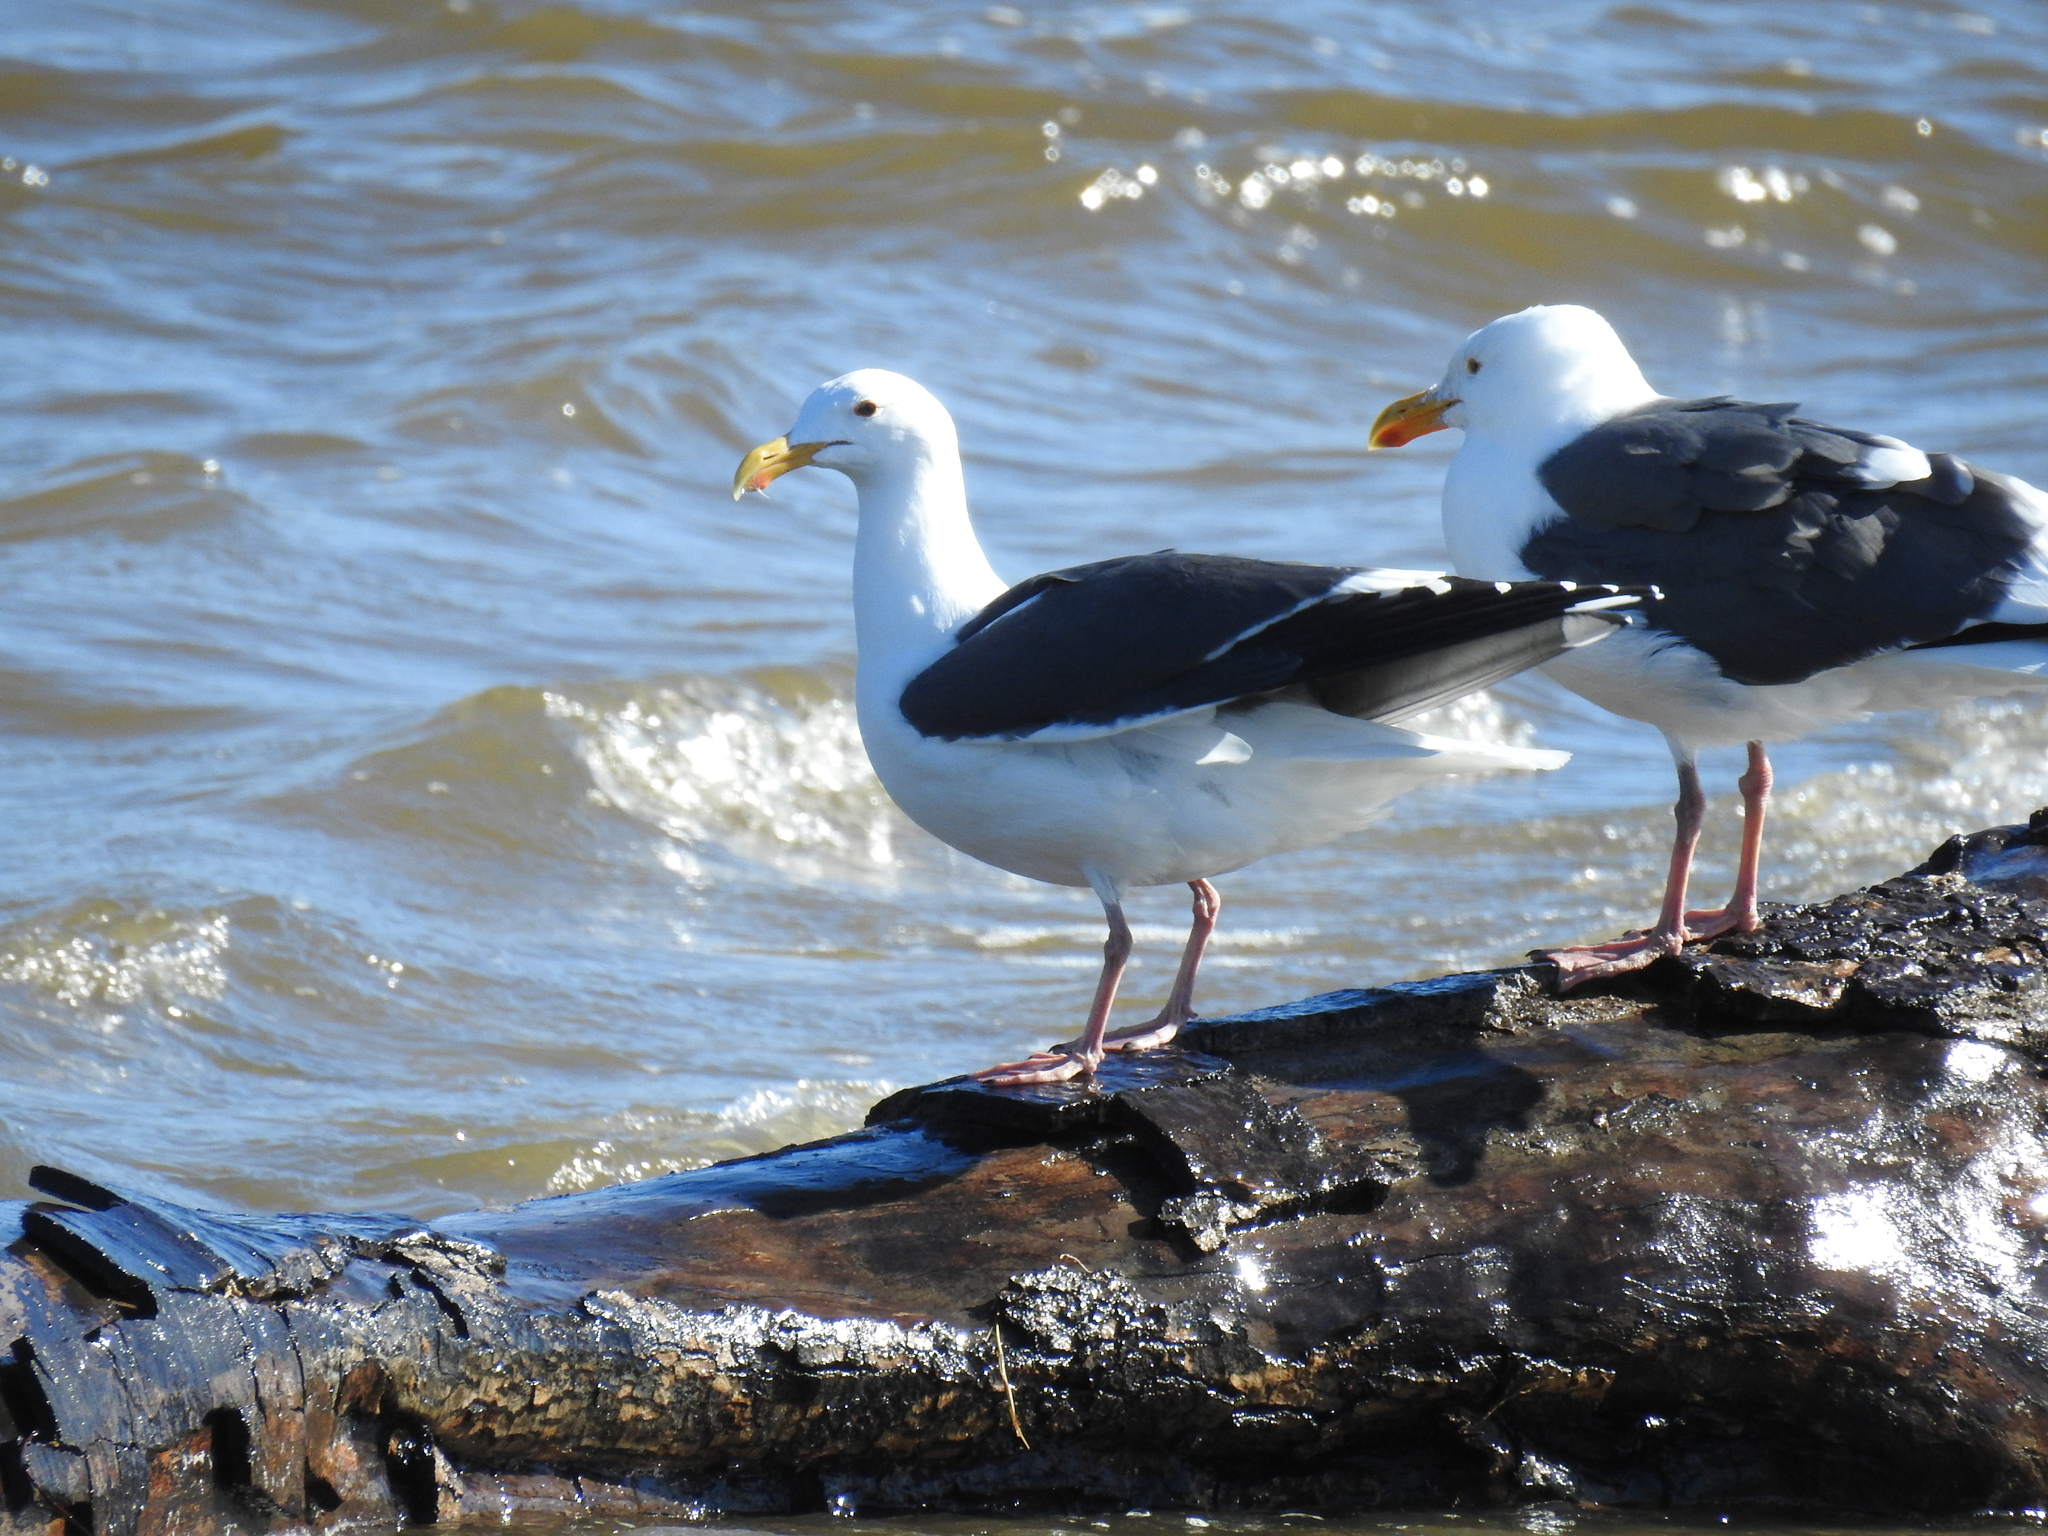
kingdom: Animalia
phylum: Chordata
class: Aves
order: Charadriiformes
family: Laridae
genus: Larus
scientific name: Larus occidentalis
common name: Western gull
